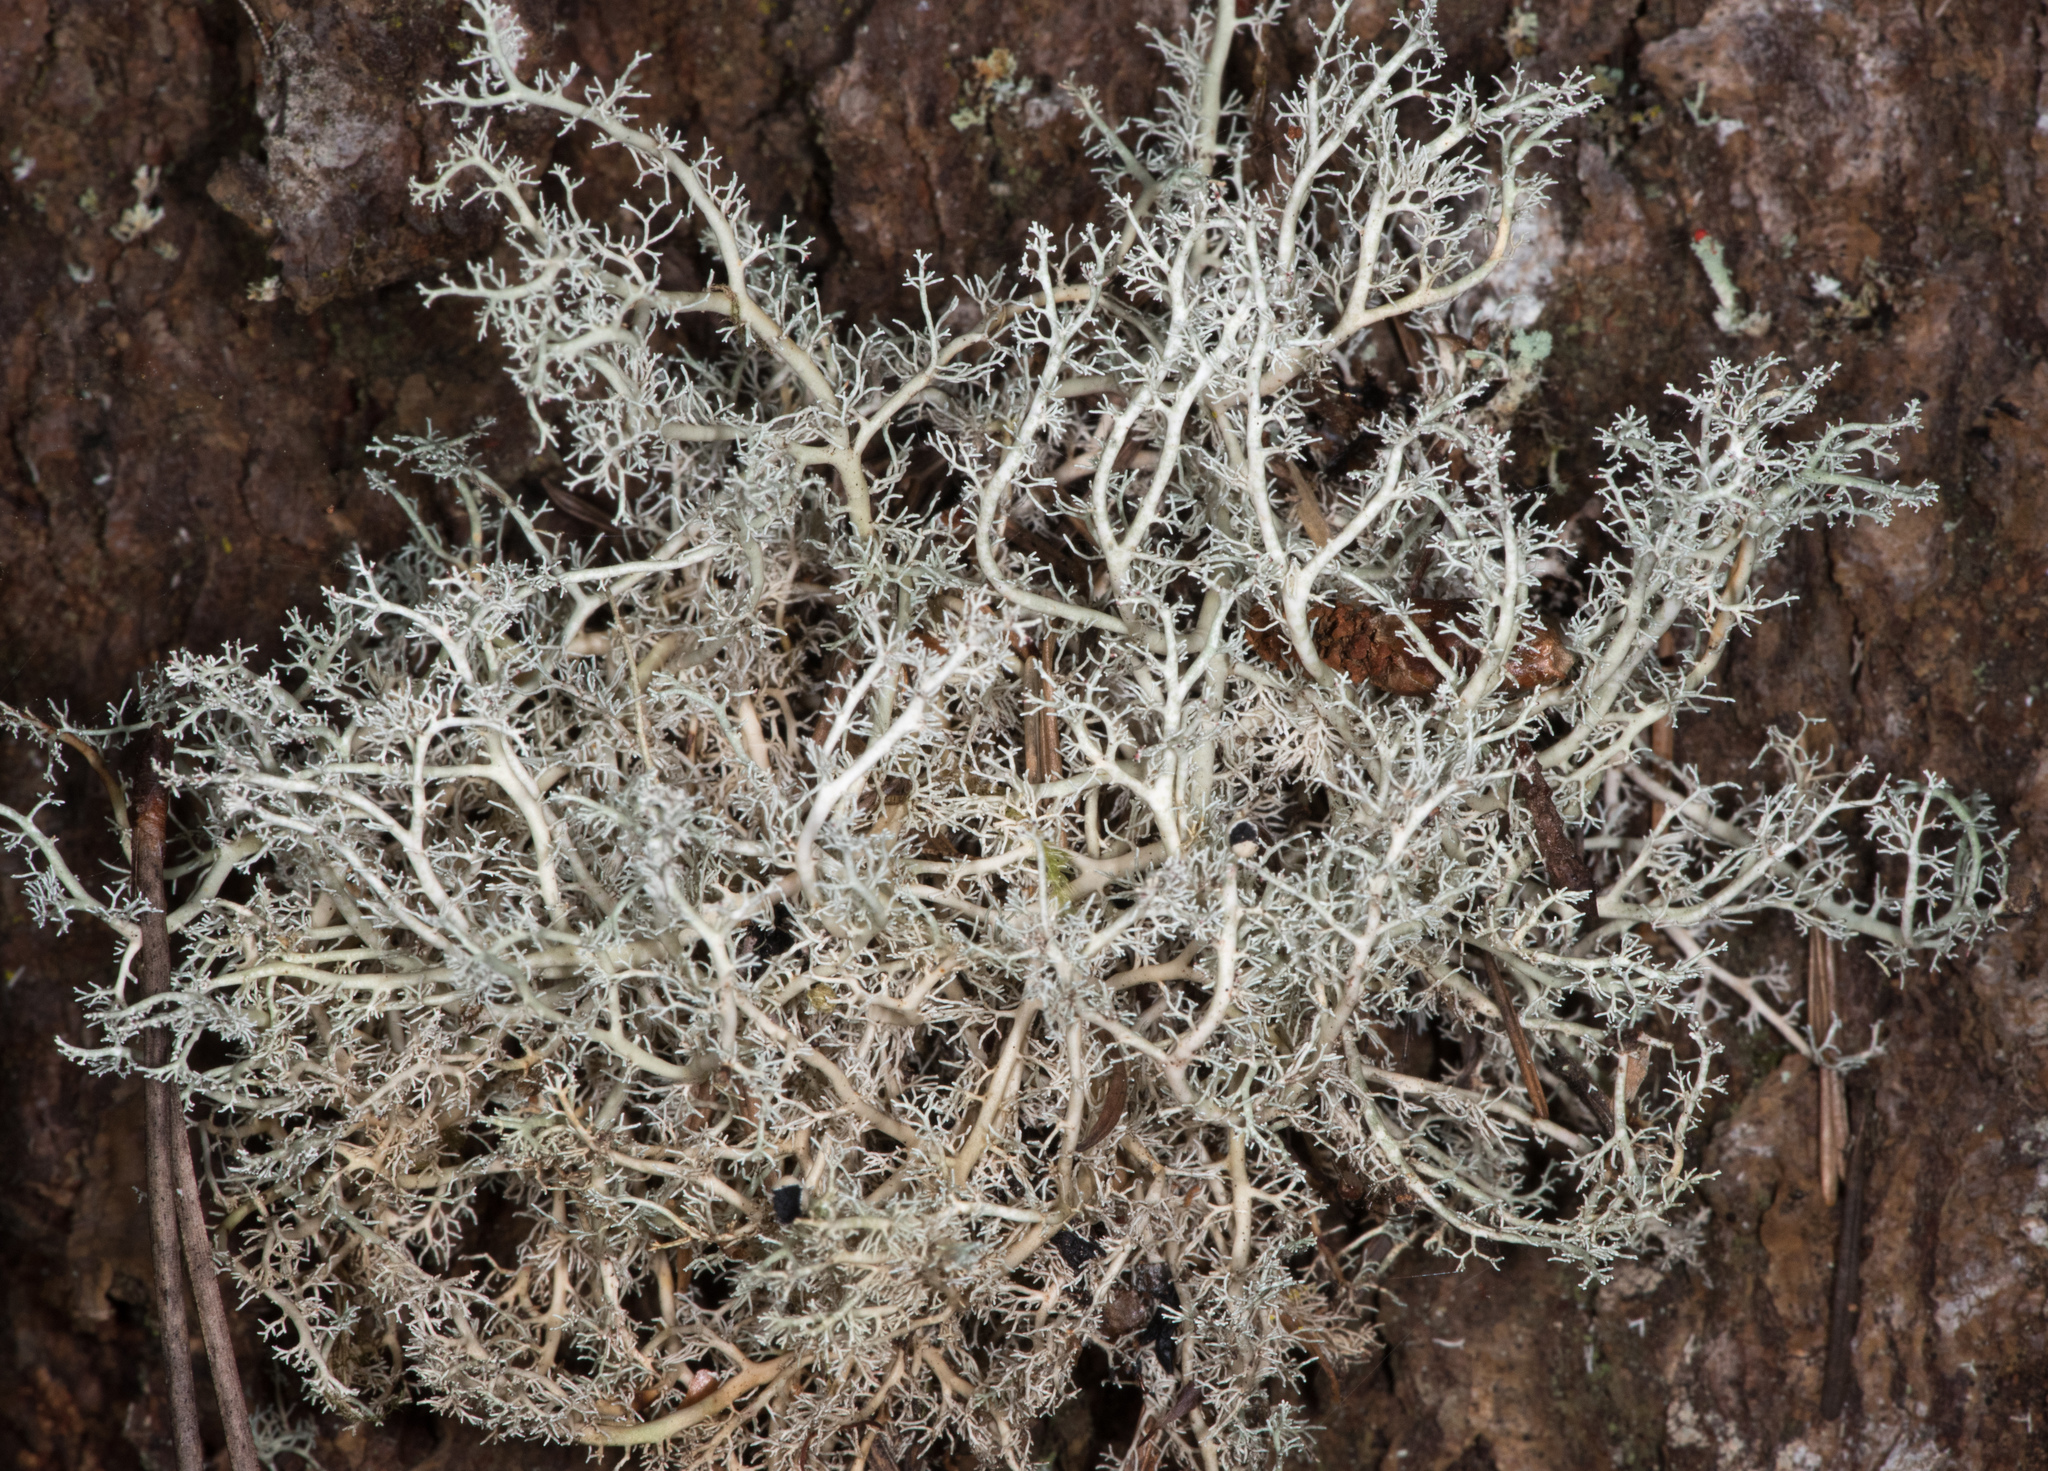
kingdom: Fungi
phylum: Ascomycota
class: Lecanoromycetes
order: Lecanorales
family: Sphaerophoraceae
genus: Sphaerophorus
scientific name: Sphaerophorus globosus
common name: Globe ball lichen
